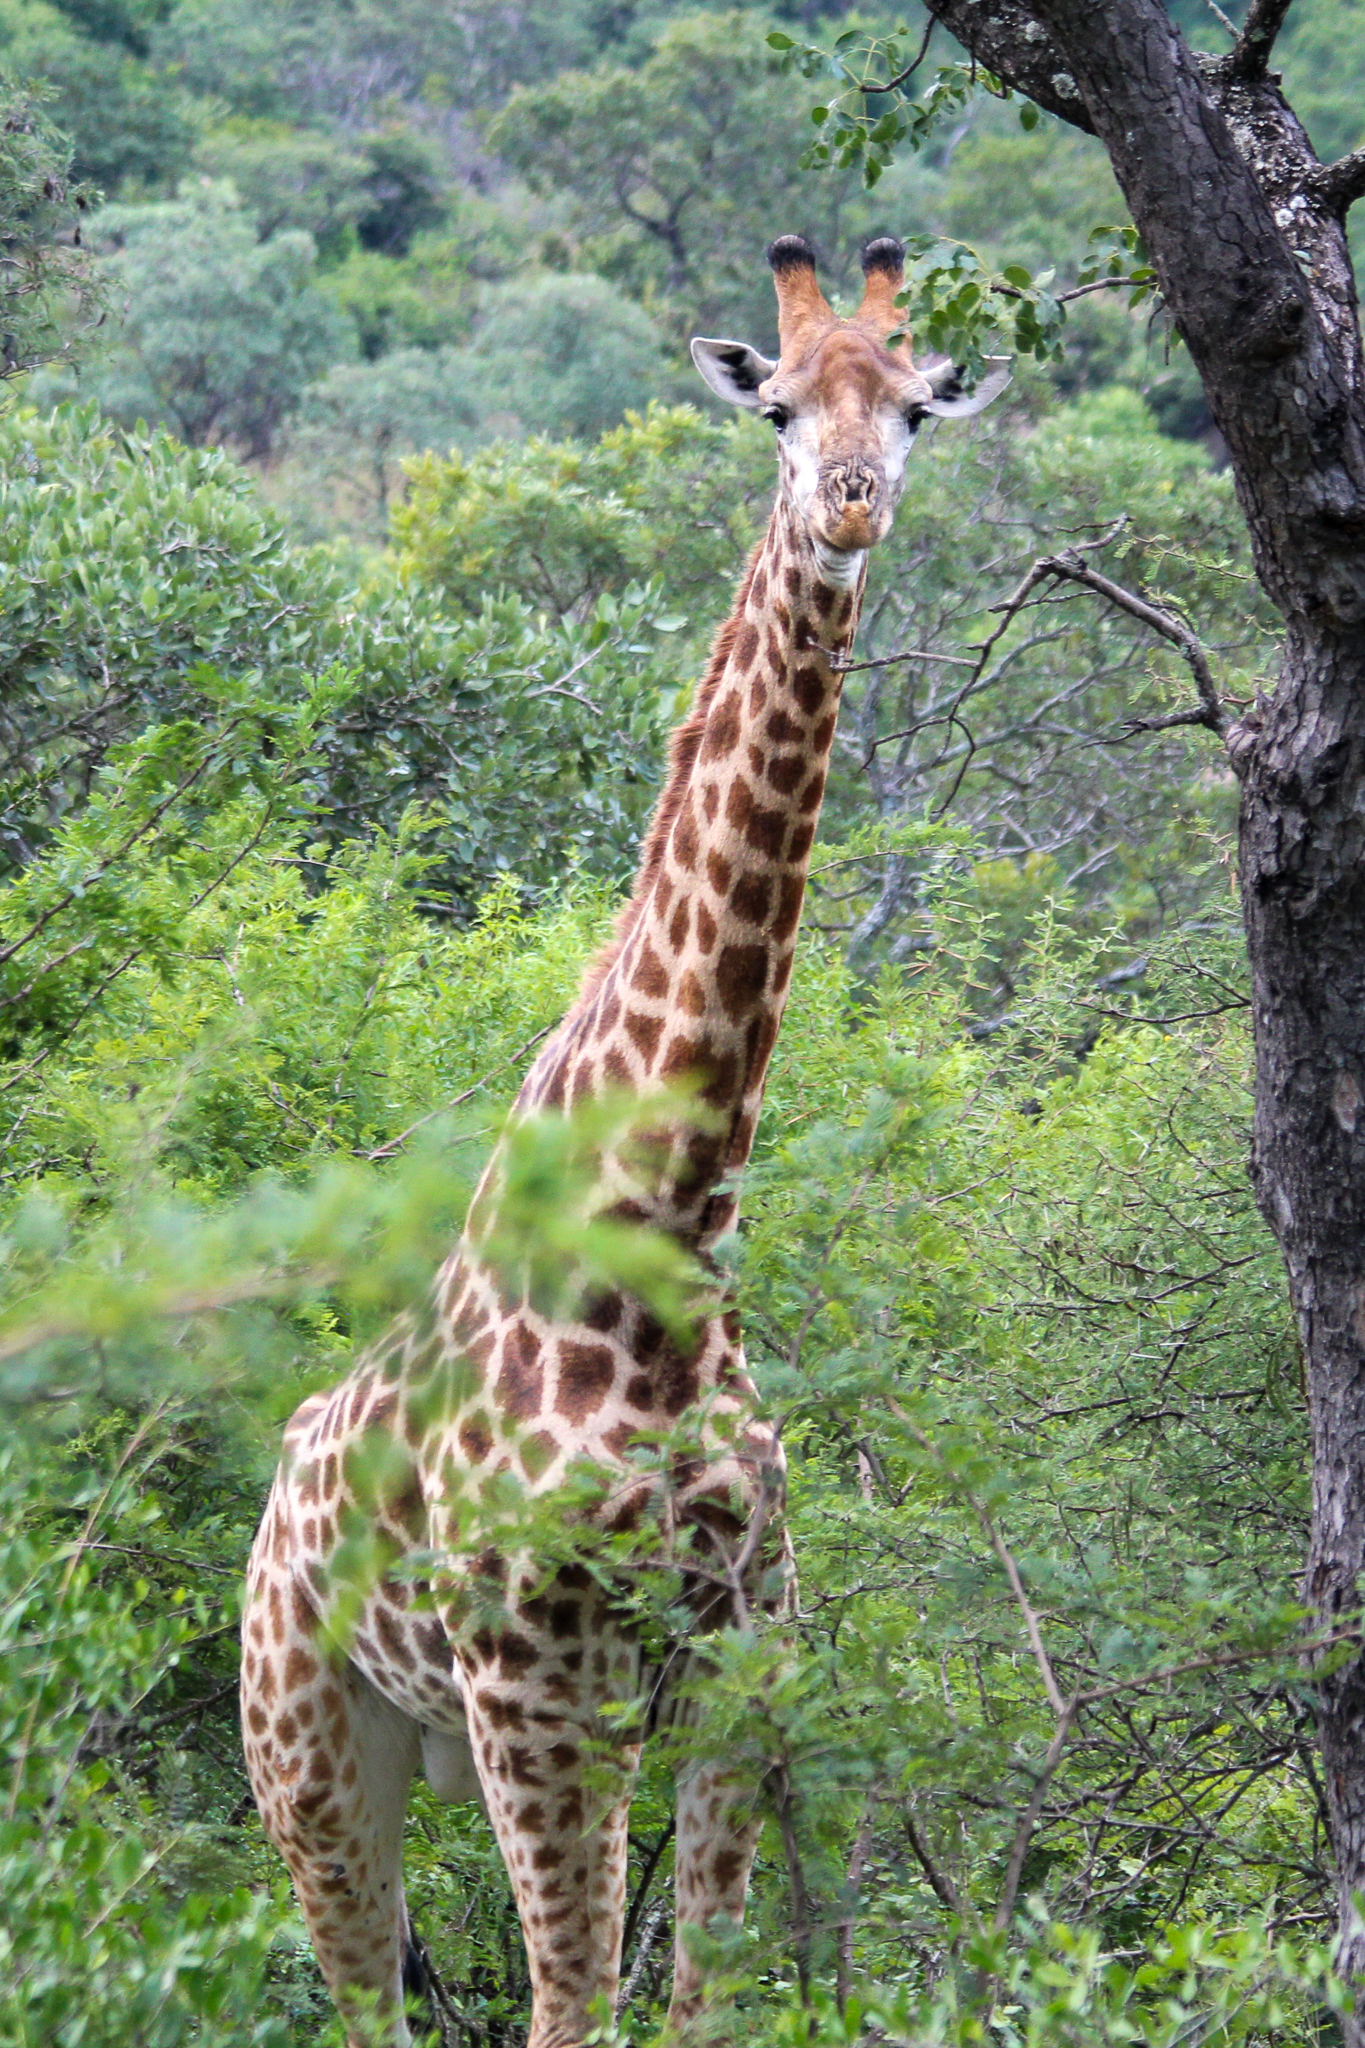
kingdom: Animalia
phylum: Chordata
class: Mammalia
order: Artiodactyla
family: Giraffidae
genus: Giraffa
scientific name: Giraffa giraffa
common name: Southern giraffe
